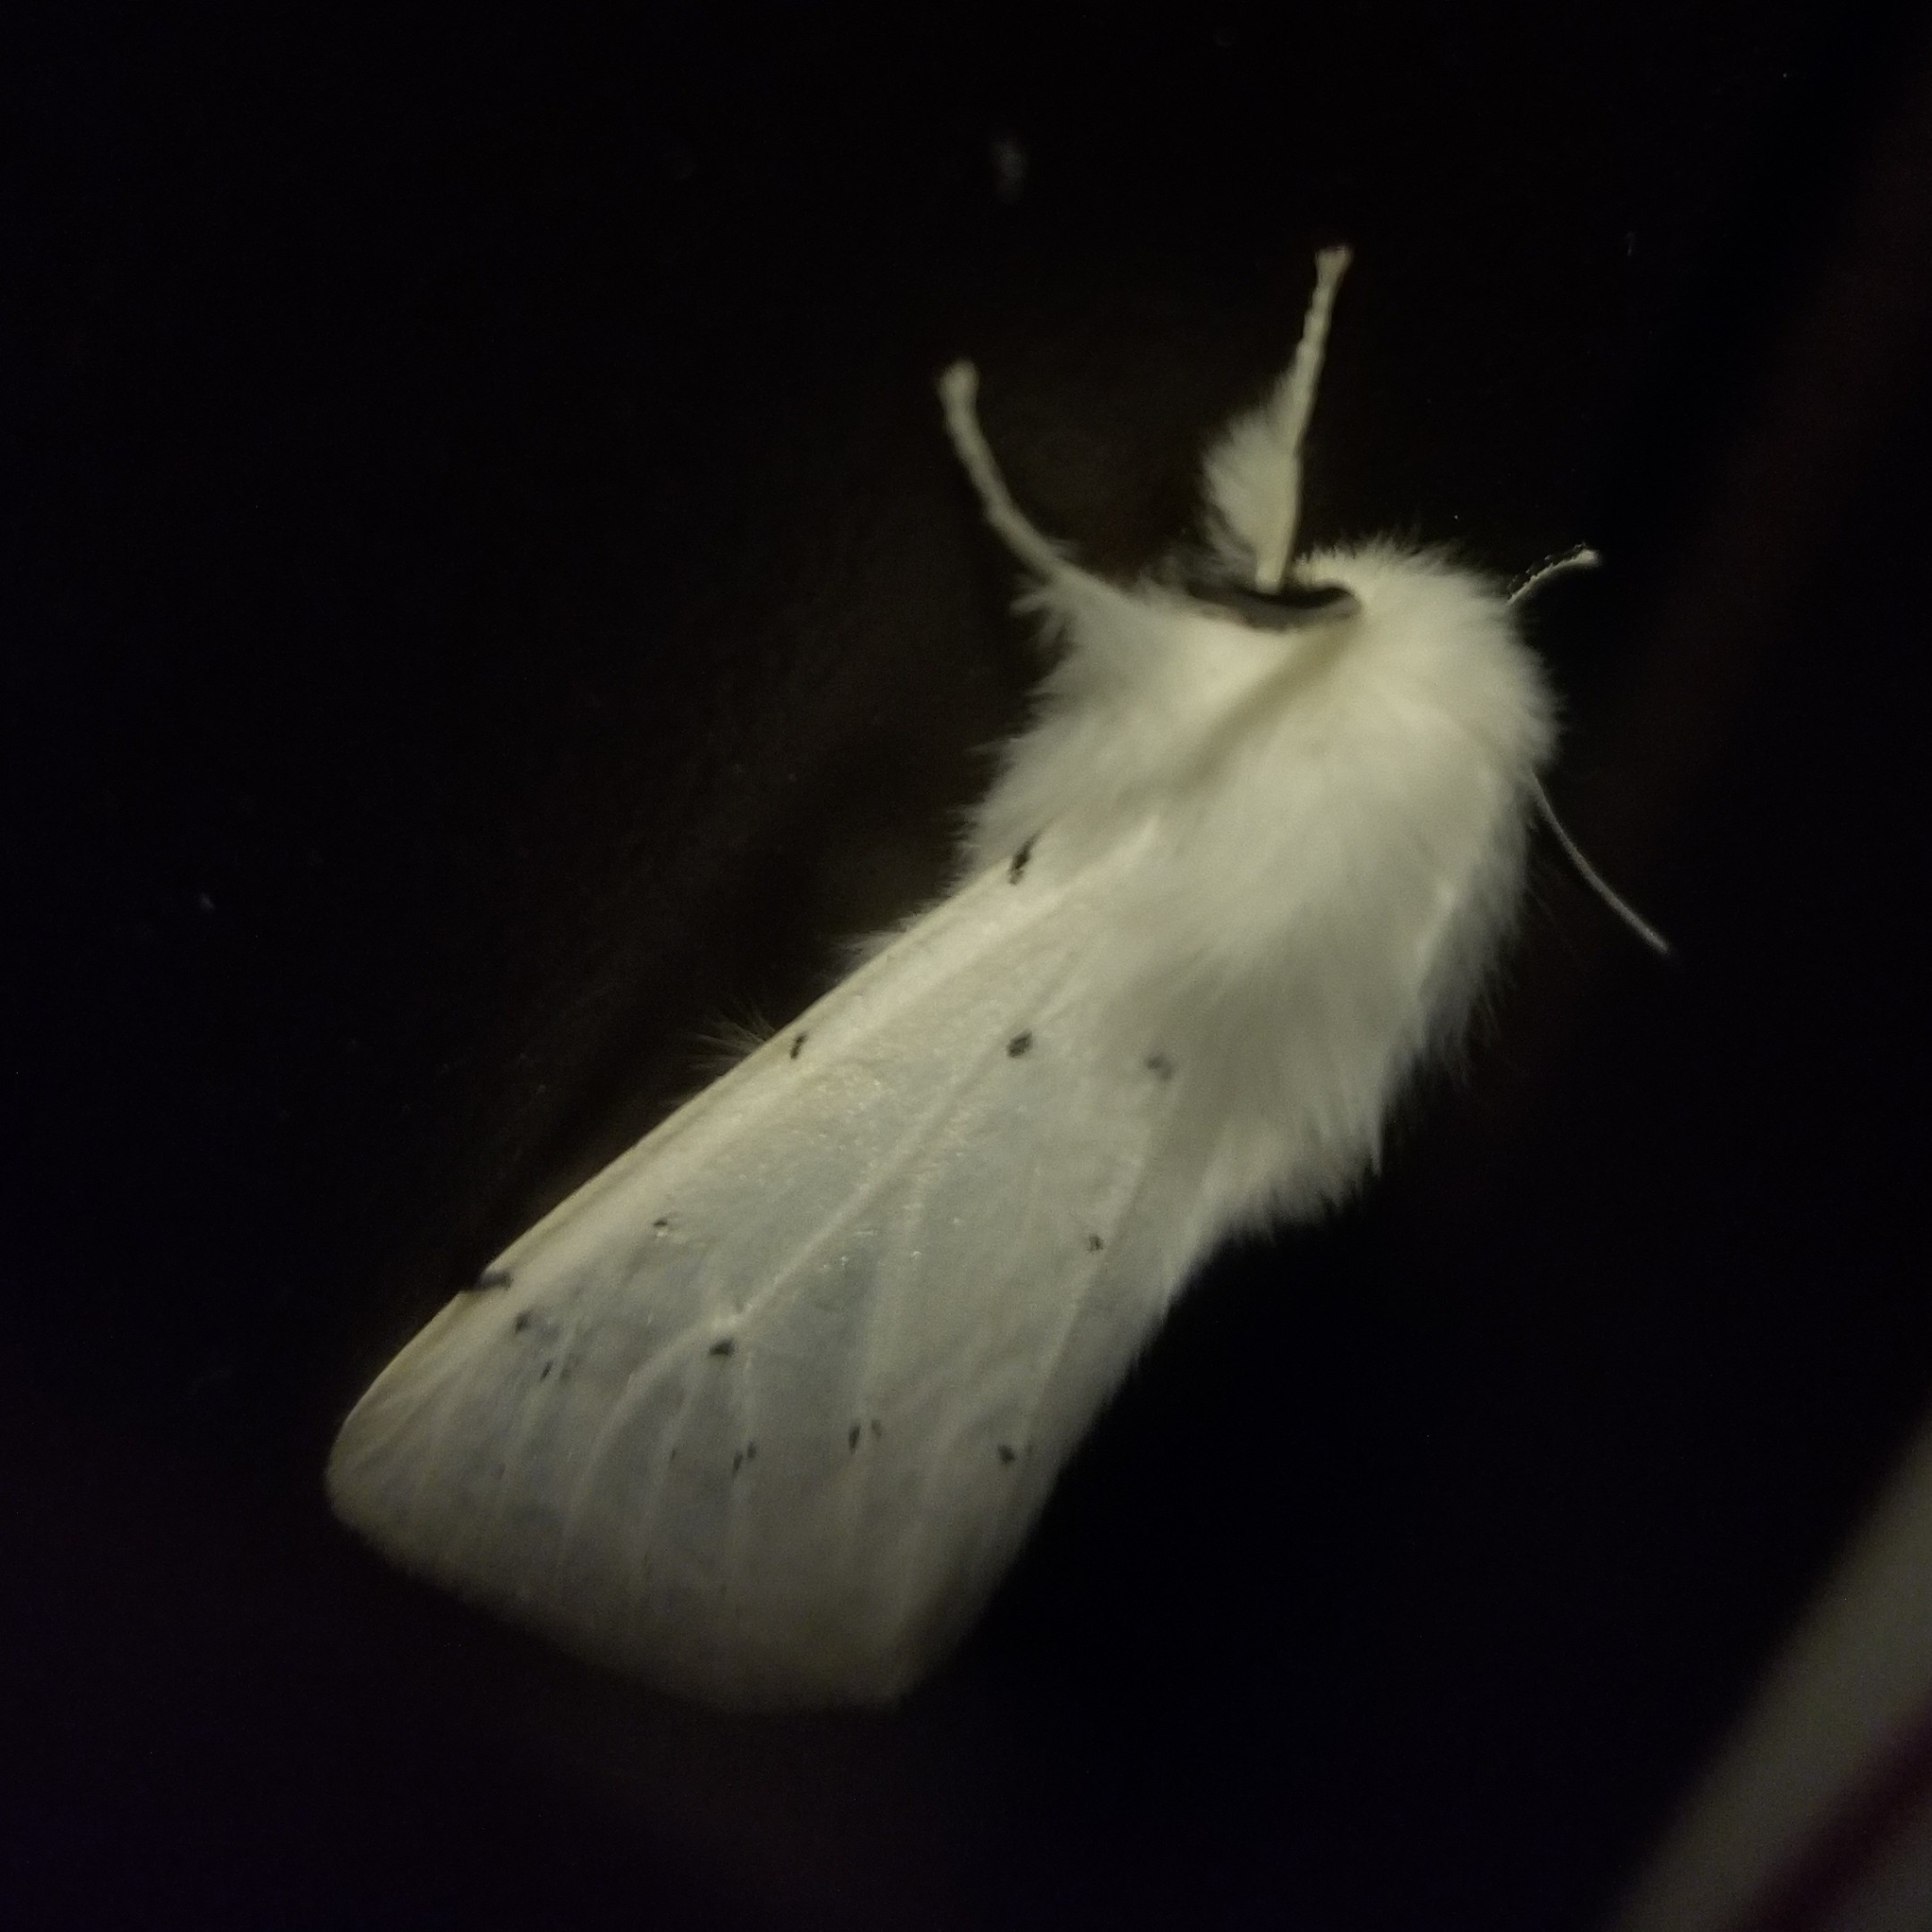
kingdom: Animalia
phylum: Arthropoda
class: Insecta
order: Lepidoptera
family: Erebidae
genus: Spilosoma
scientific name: Spilosoma vestalis
